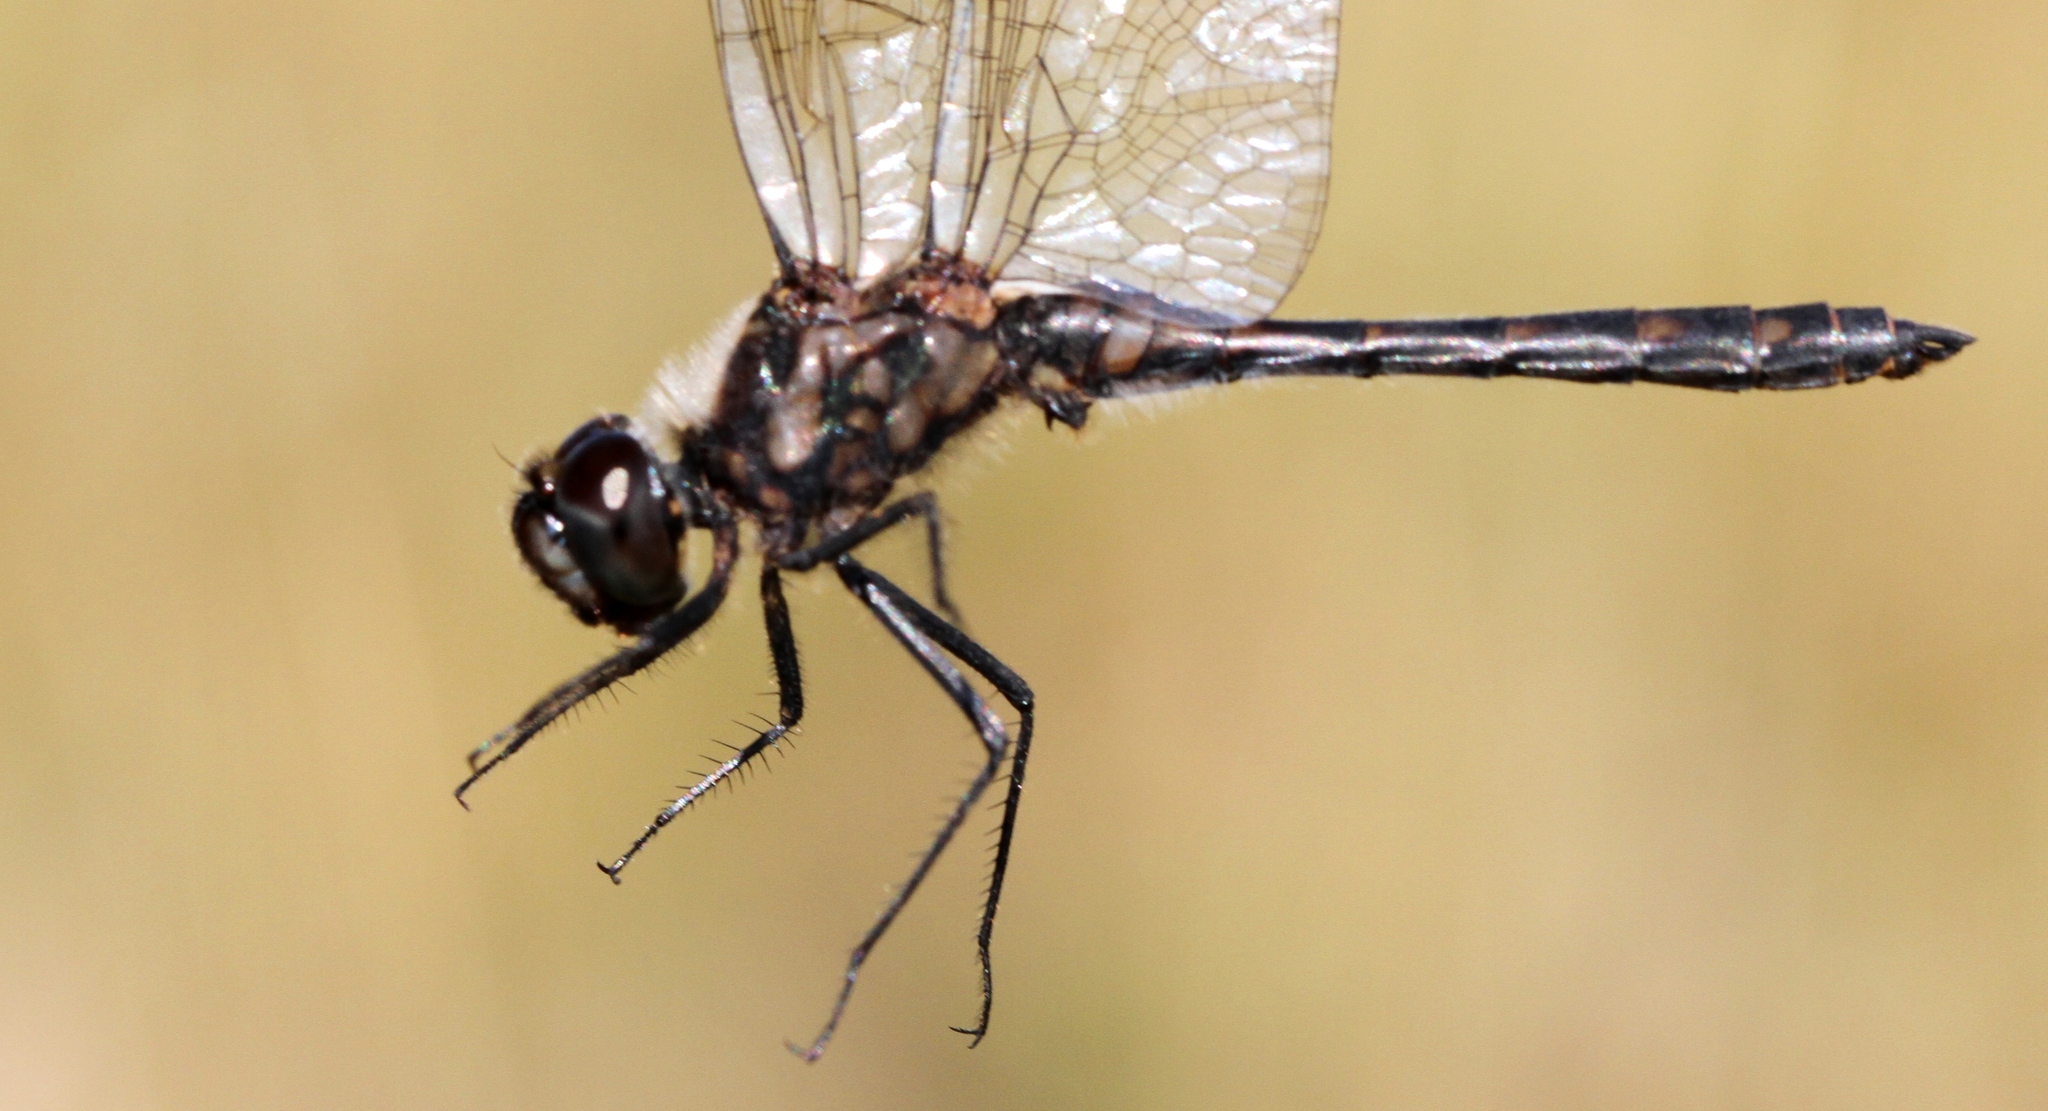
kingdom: Animalia
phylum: Arthropoda
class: Insecta
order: Odonata
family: Libellulidae
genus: Sympetrum
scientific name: Sympetrum danae
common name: Black darter
